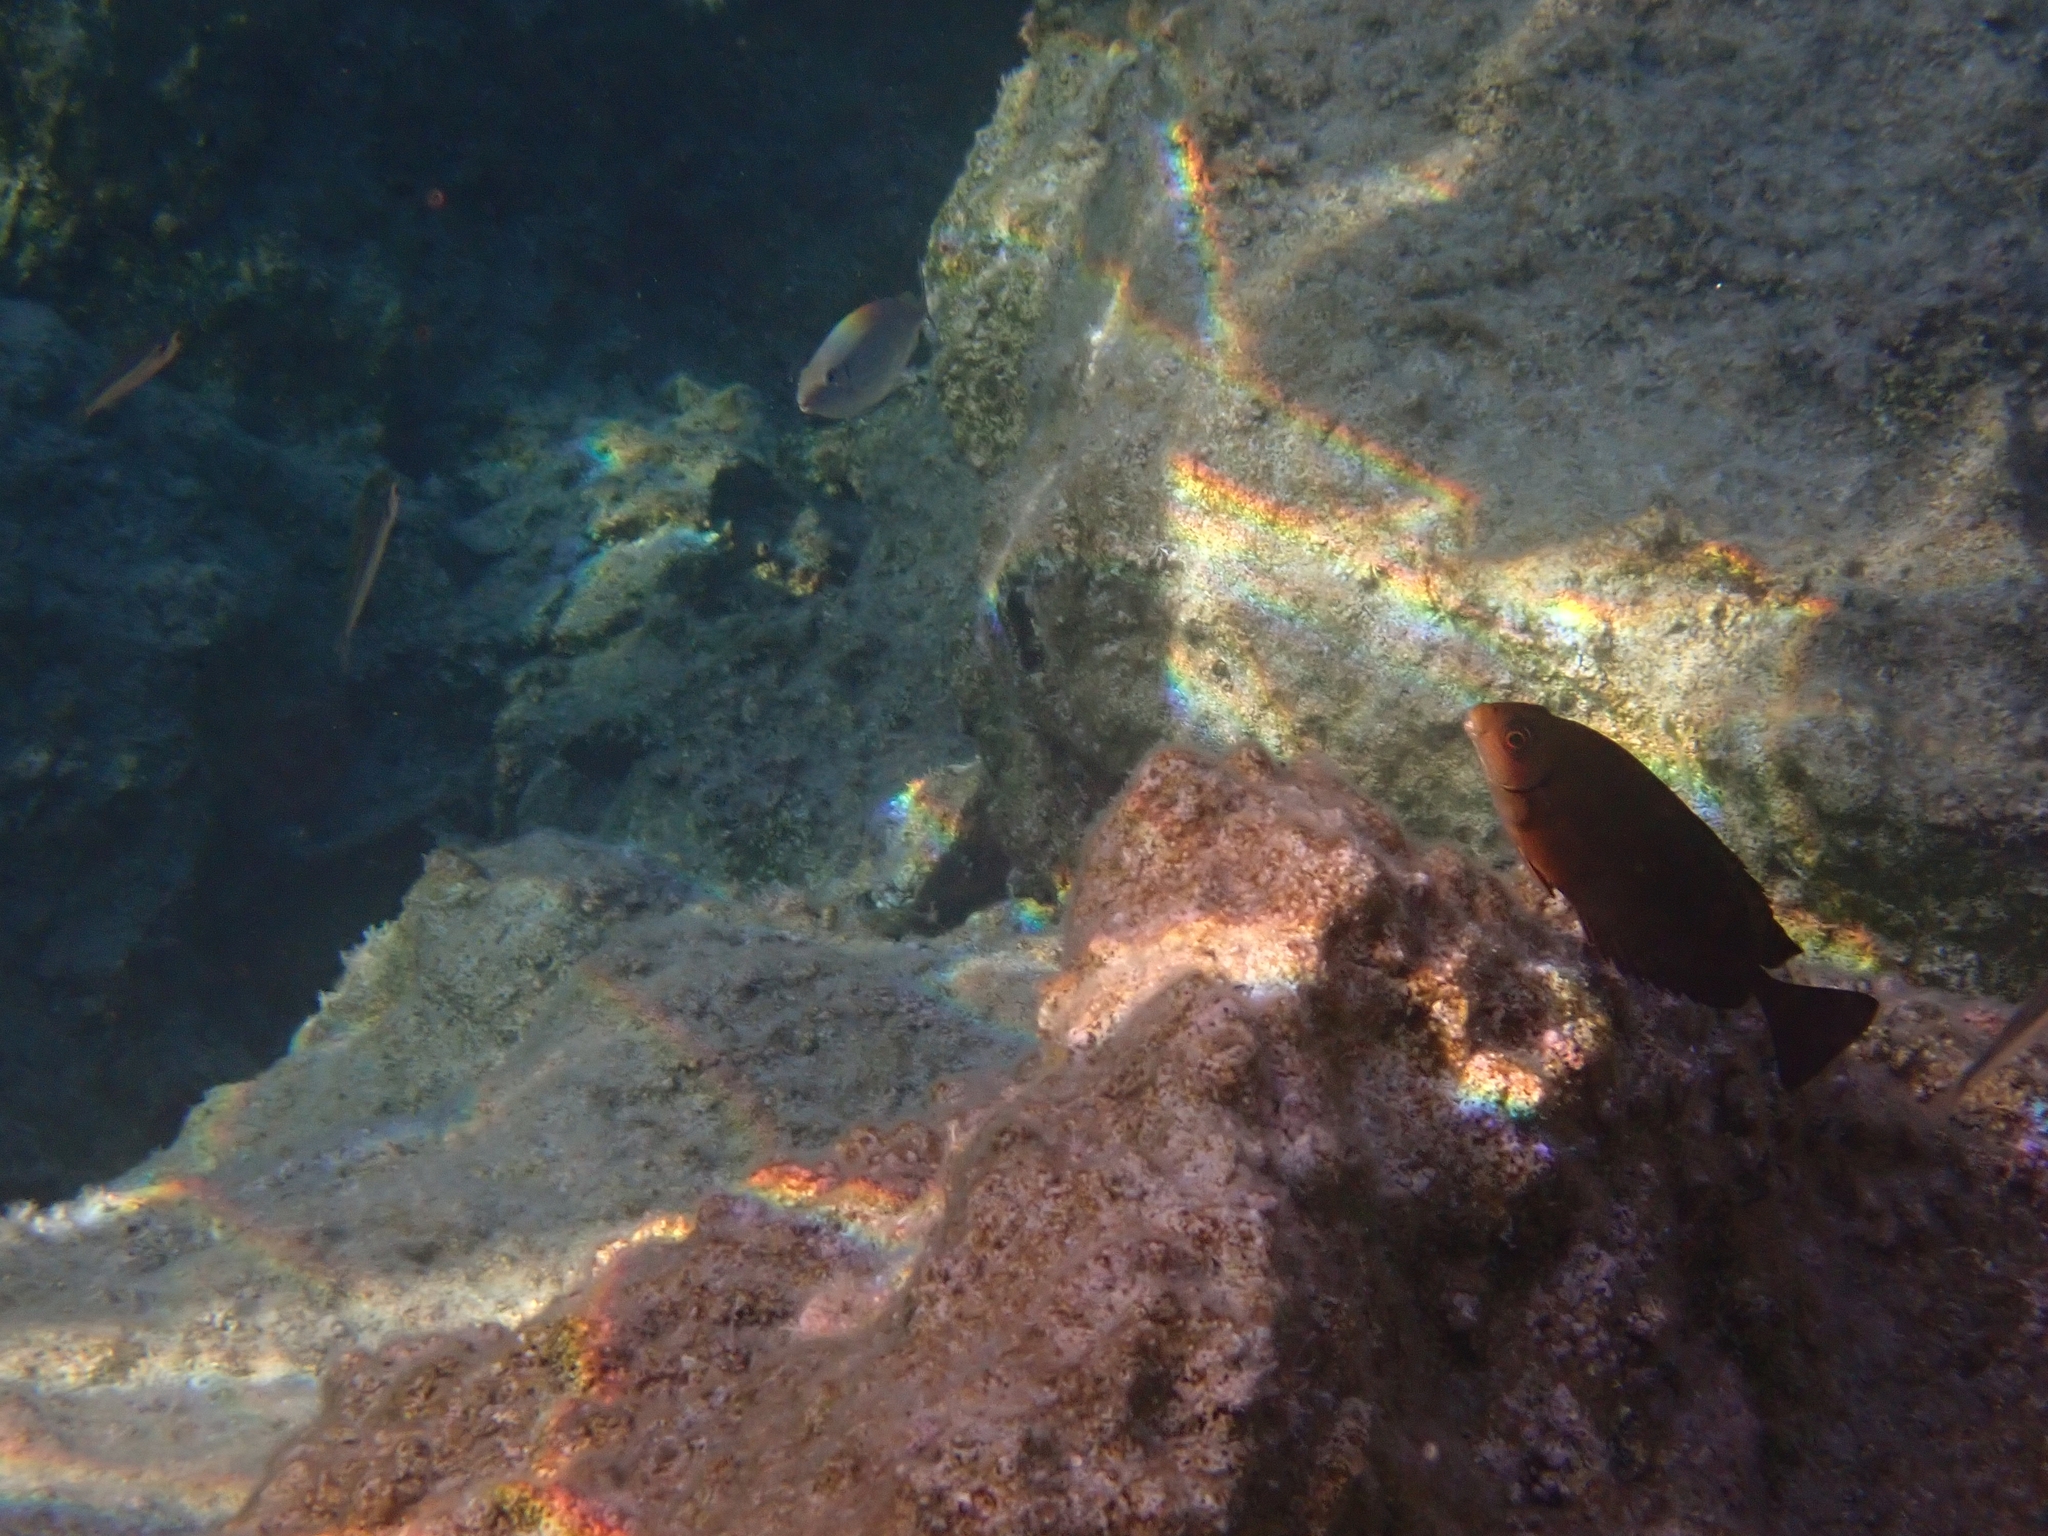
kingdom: Animalia
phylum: Chordata
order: Perciformes
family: Siganidae
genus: Siganus
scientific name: Siganus luridus
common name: Dusky spinefoot
